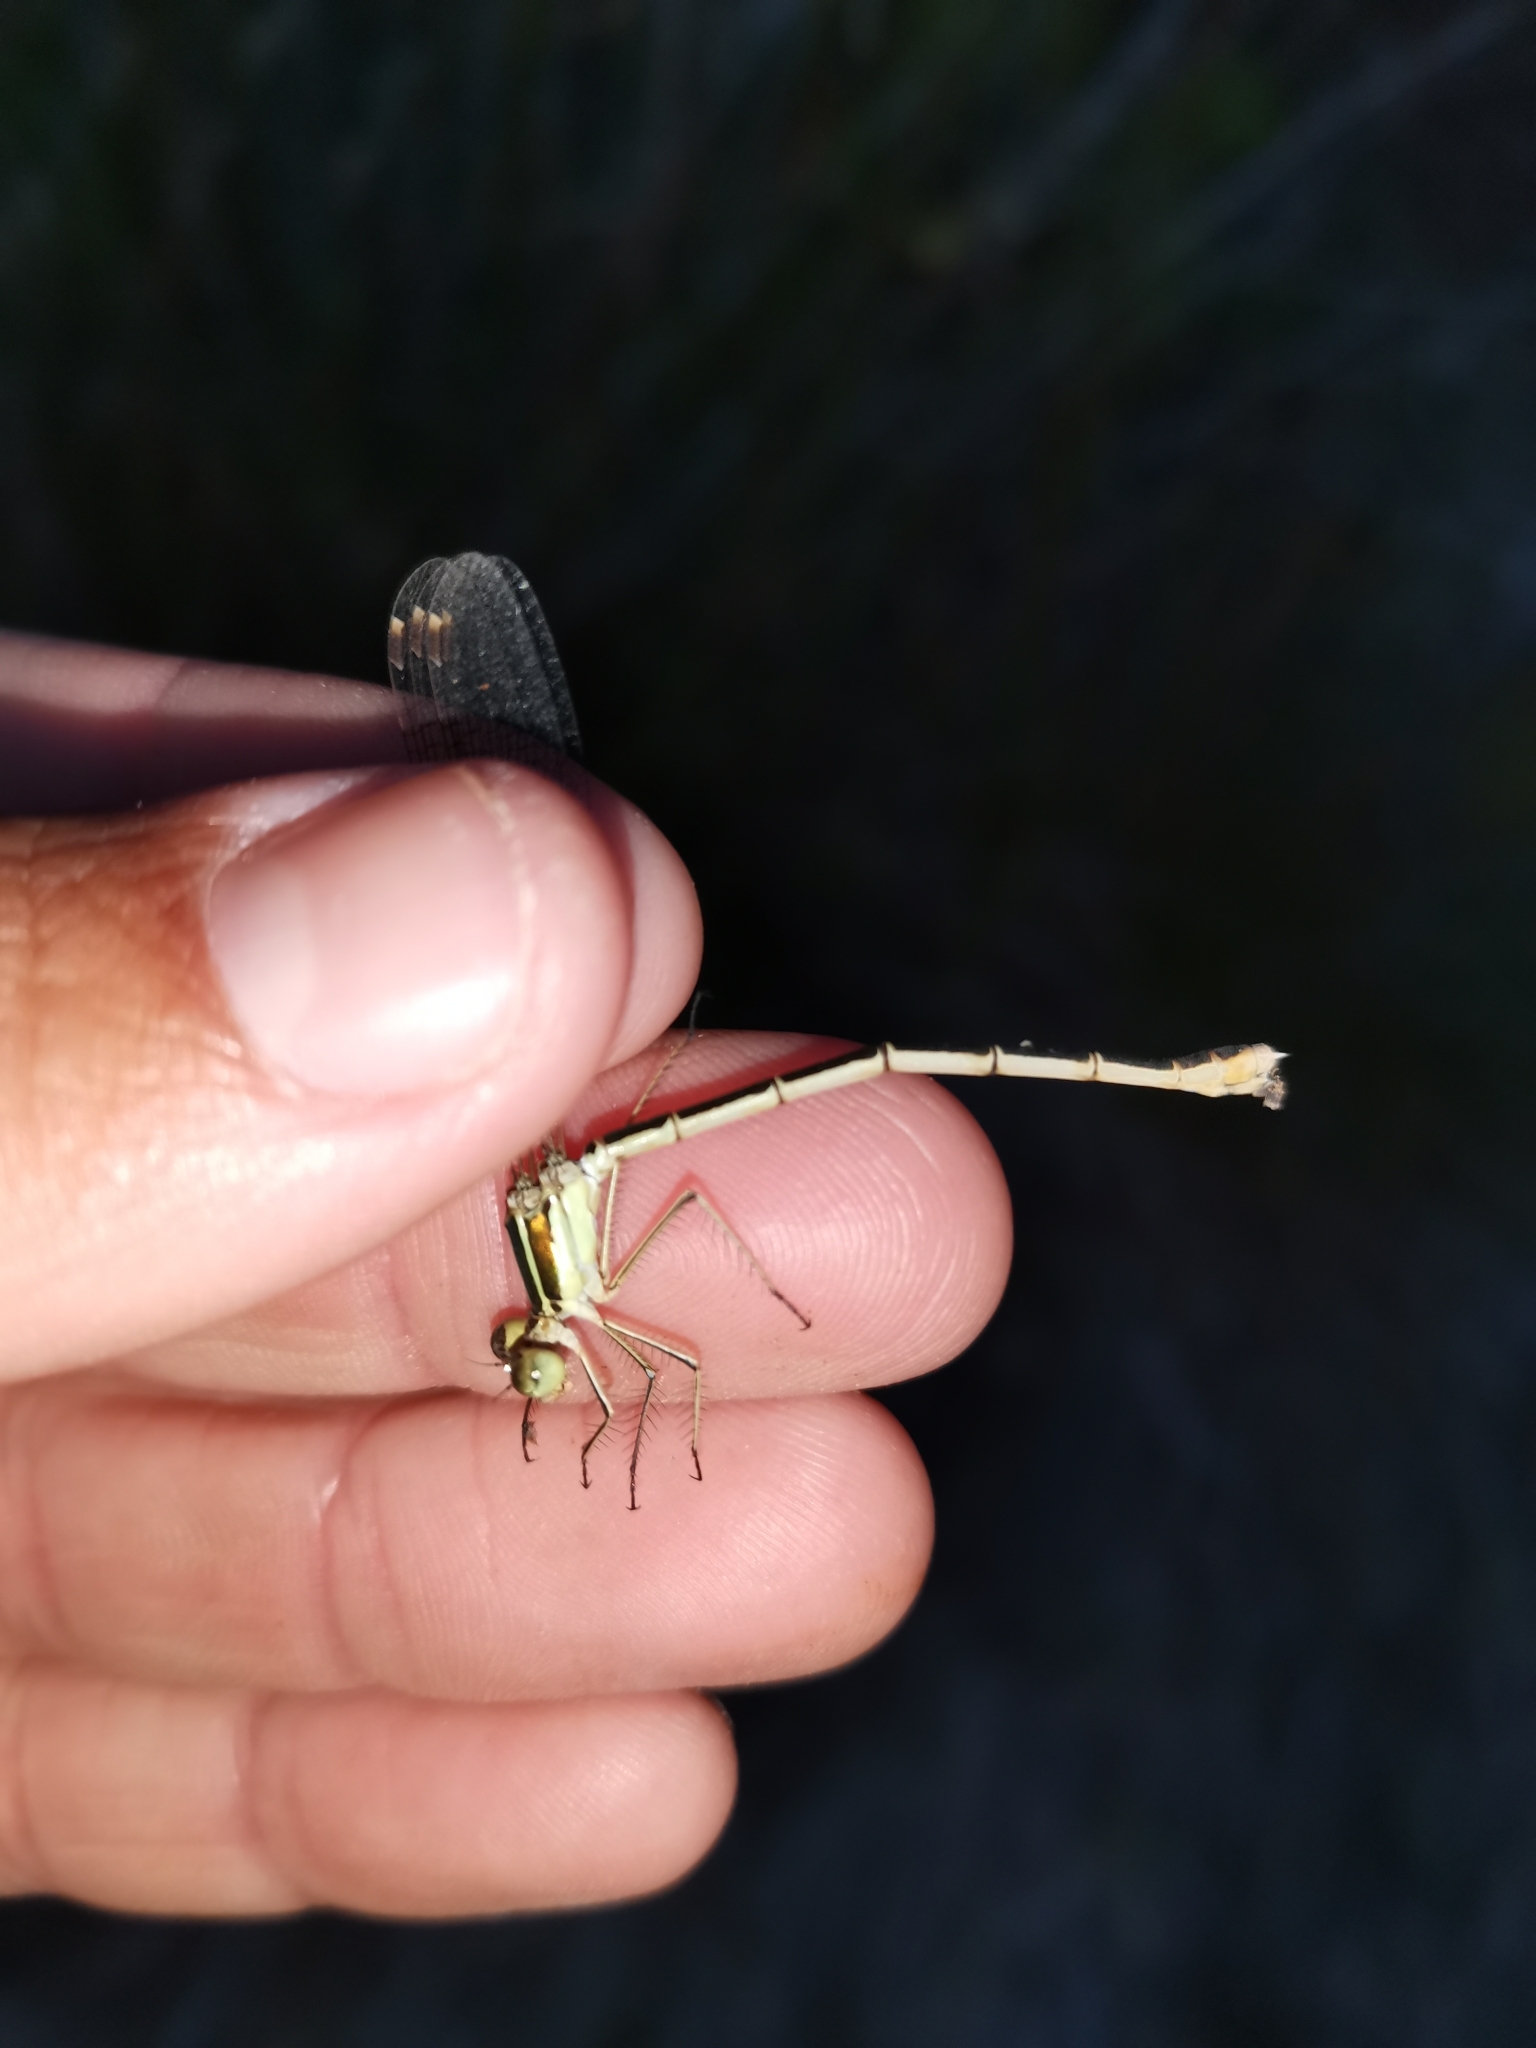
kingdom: Animalia
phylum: Arthropoda
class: Insecta
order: Odonata
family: Lestidae
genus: Lestes
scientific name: Lestes barbarus
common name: Migrant spreadwing
